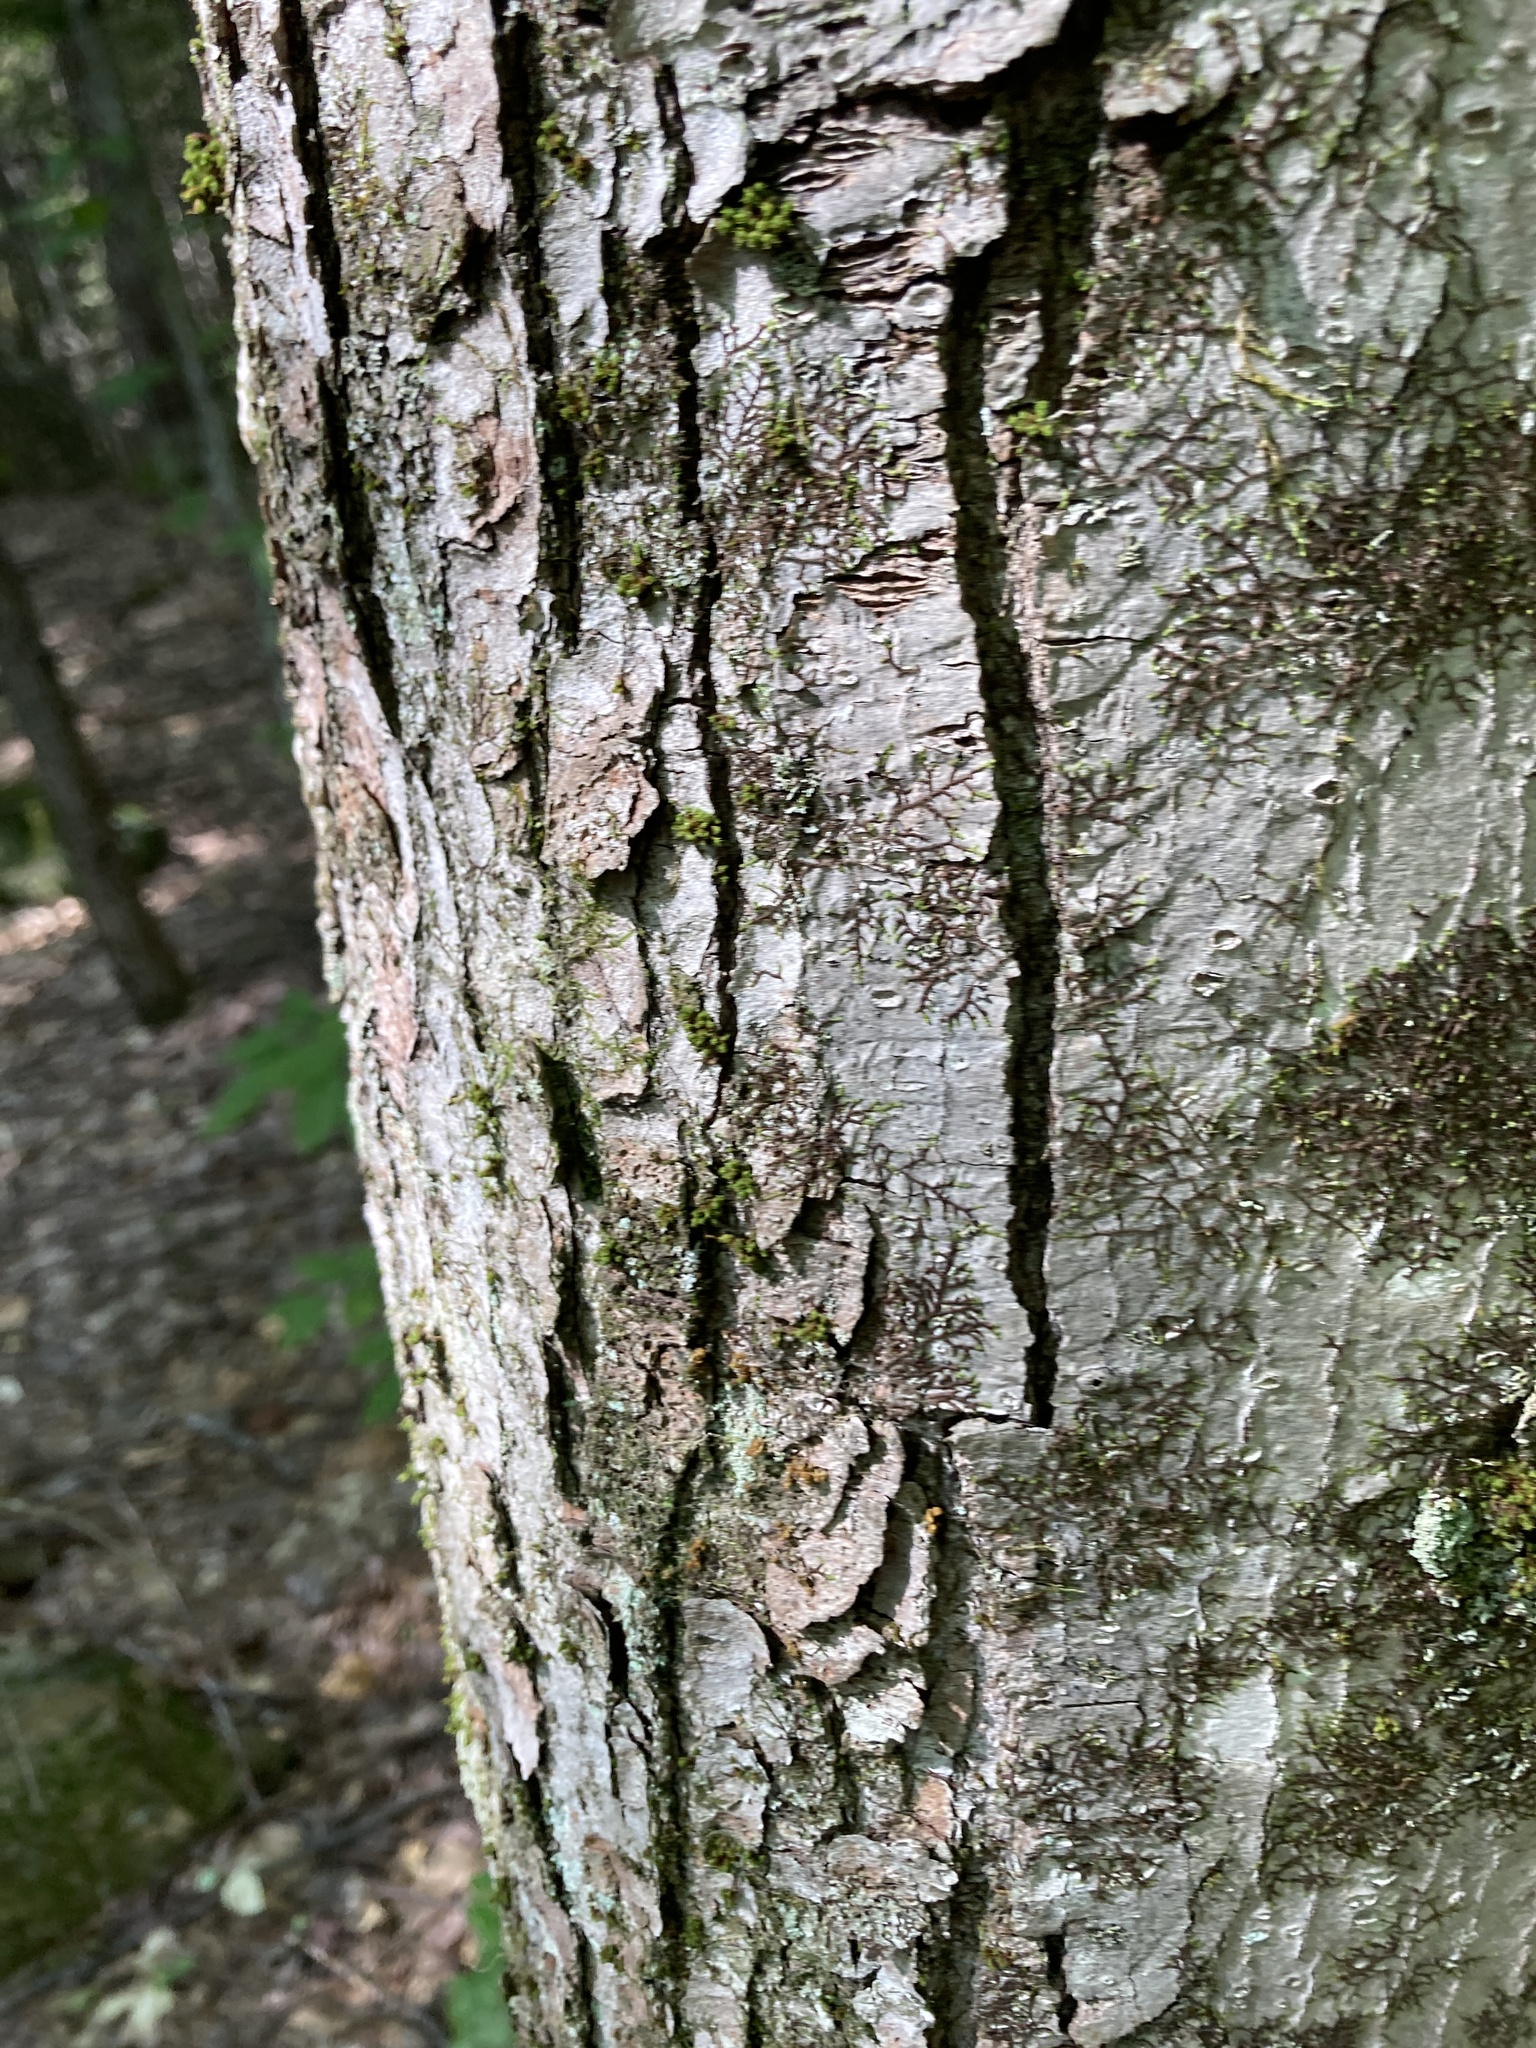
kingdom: Plantae
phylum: Tracheophyta
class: Magnoliopsida
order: Sapindales
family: Sapindaceae
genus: Acer
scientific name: Acer rubrum
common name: Red maple
